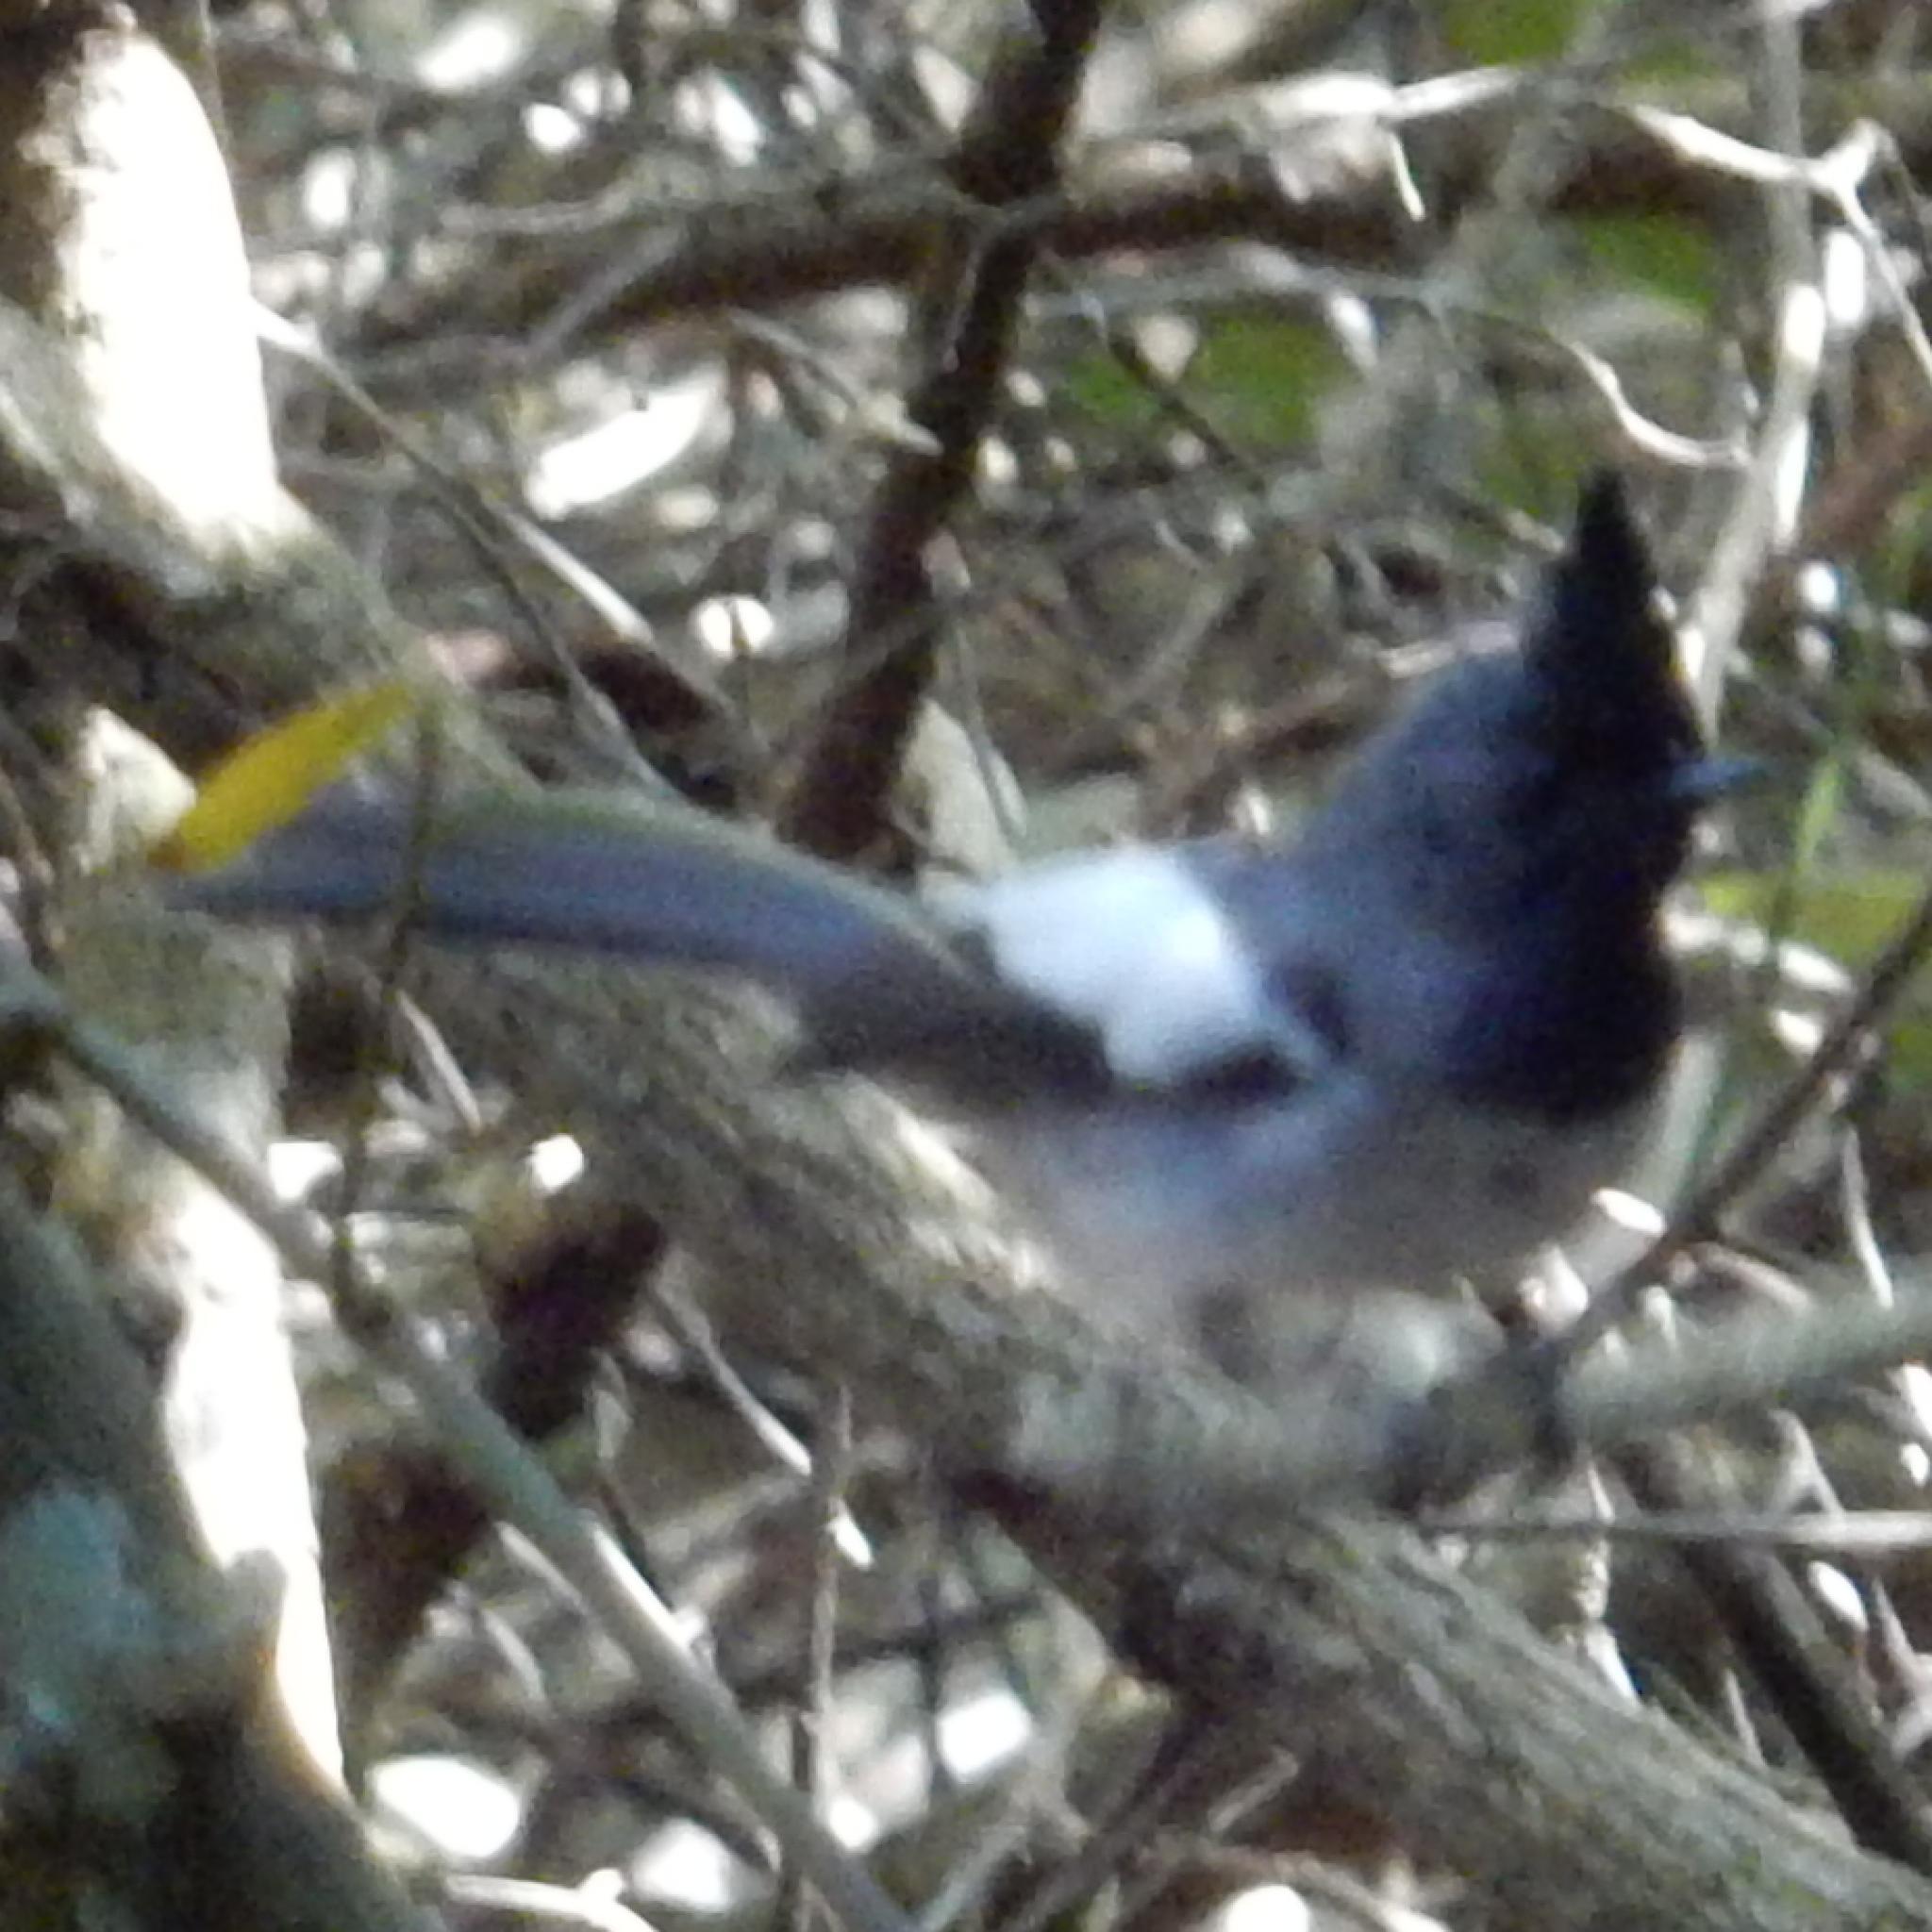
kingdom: Animalia
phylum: Chordata
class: Aves
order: Passeriformes
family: Monarchidae
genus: Trochocercus
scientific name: Trochocercus cyanomelas
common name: Blue-mantled crested flycatcher
